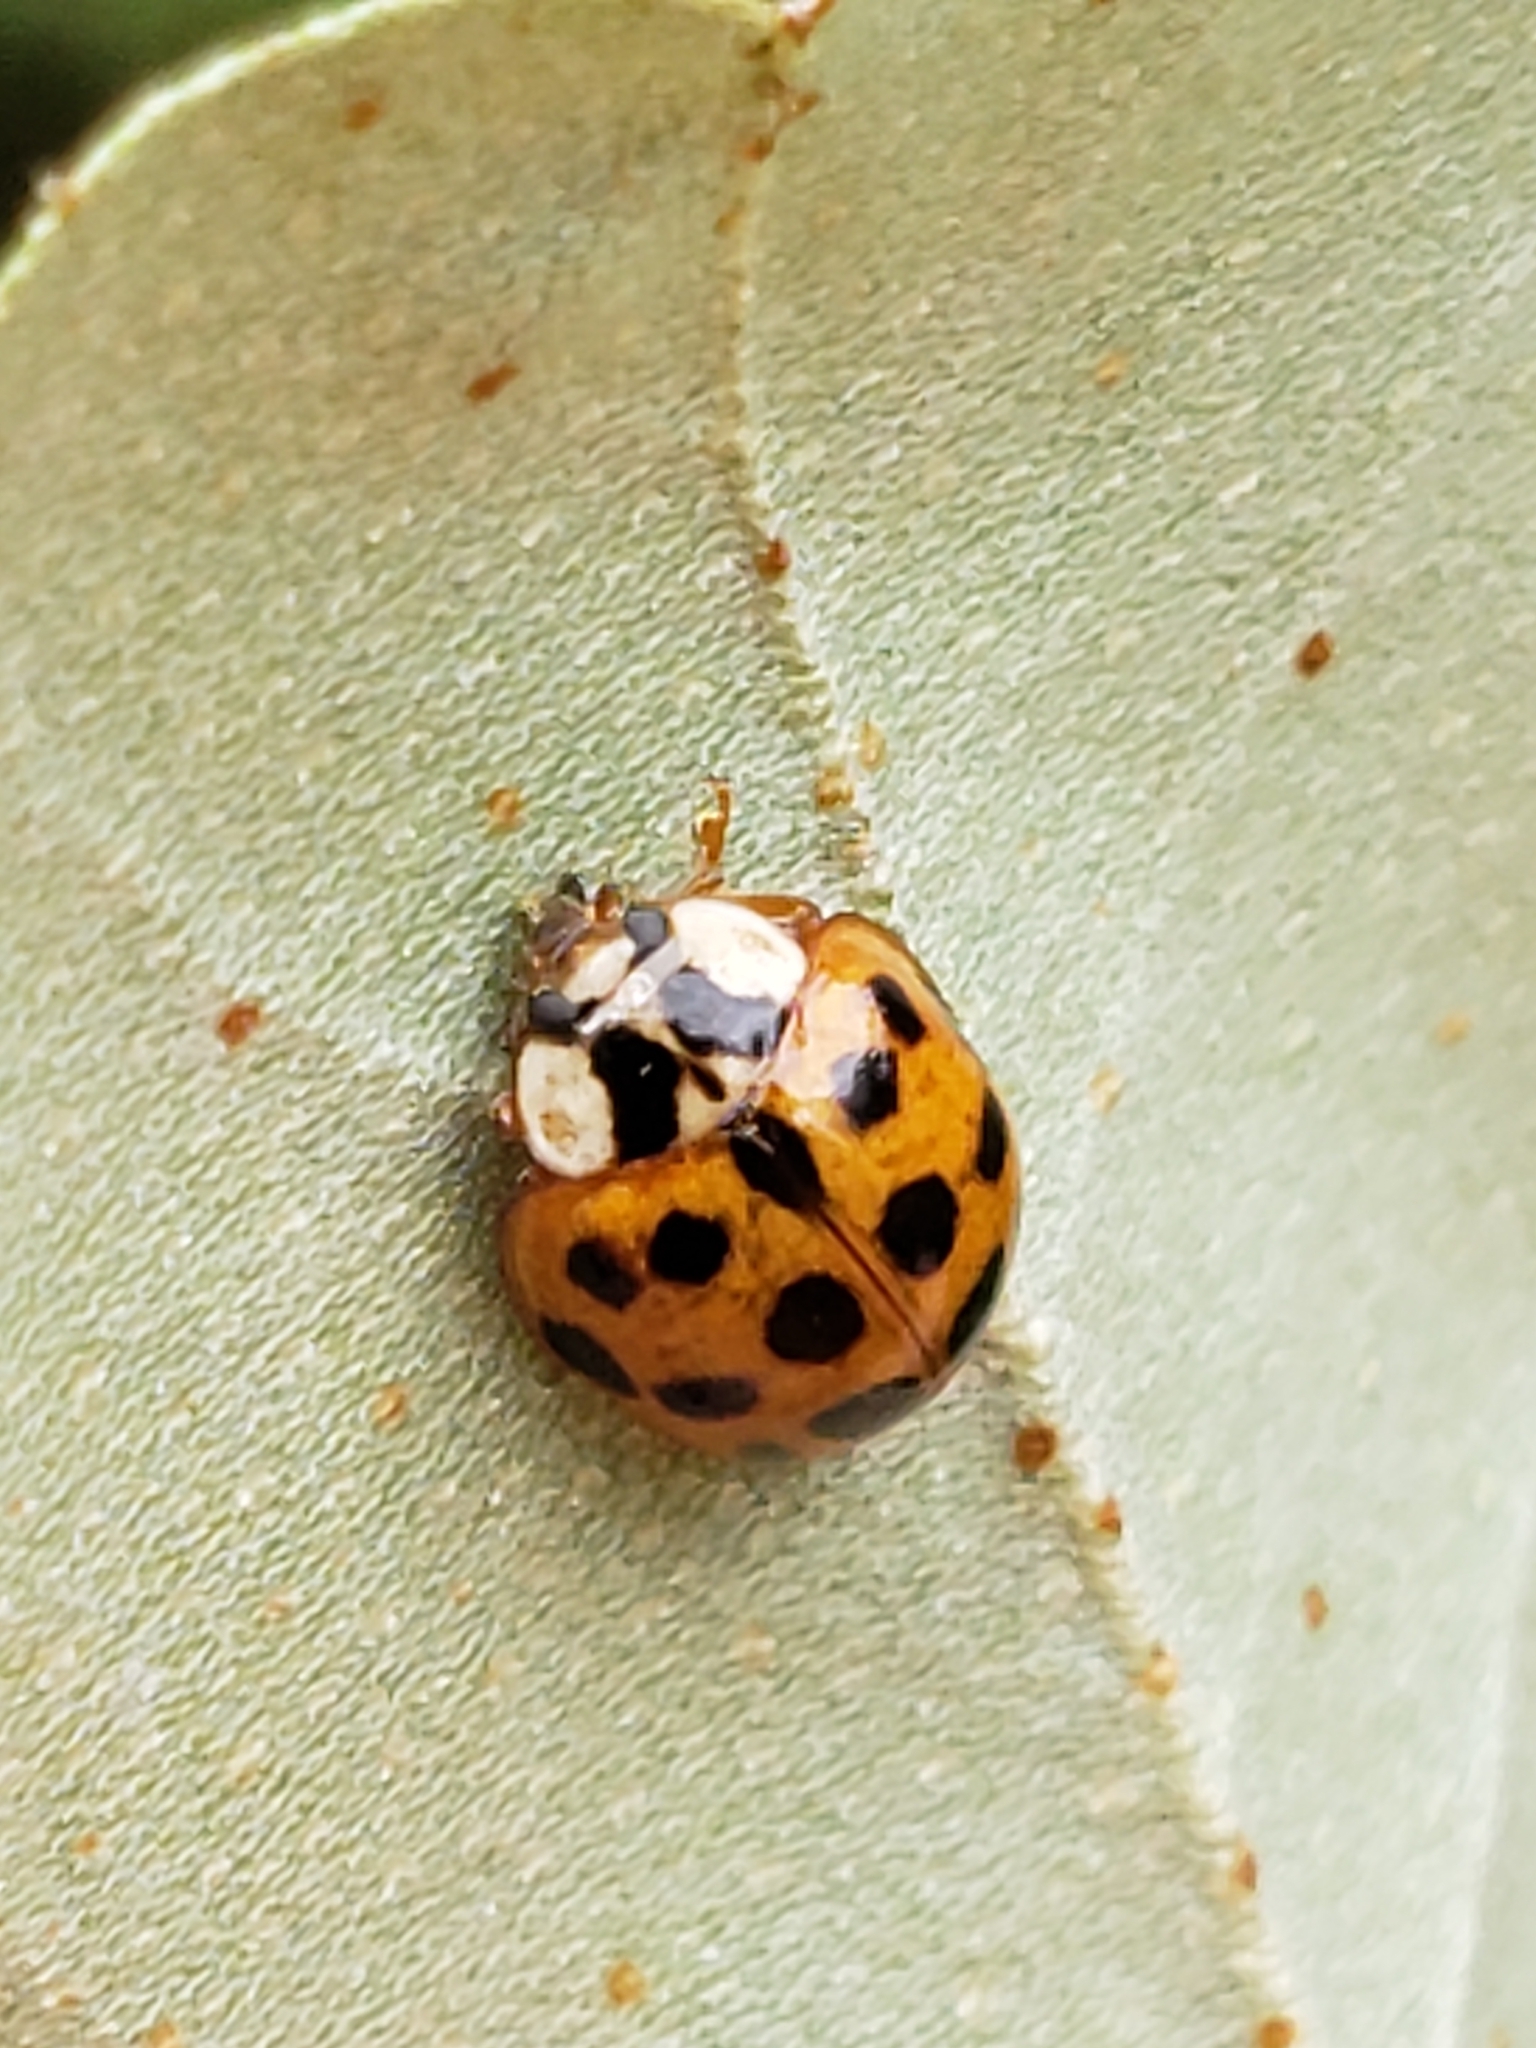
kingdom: Animalia
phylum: Arthropoda
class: Insecta
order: Coleoptera
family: Coccinellidae
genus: Harmonia
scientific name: Harmonia axyridis
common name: Harlequin ladybird
